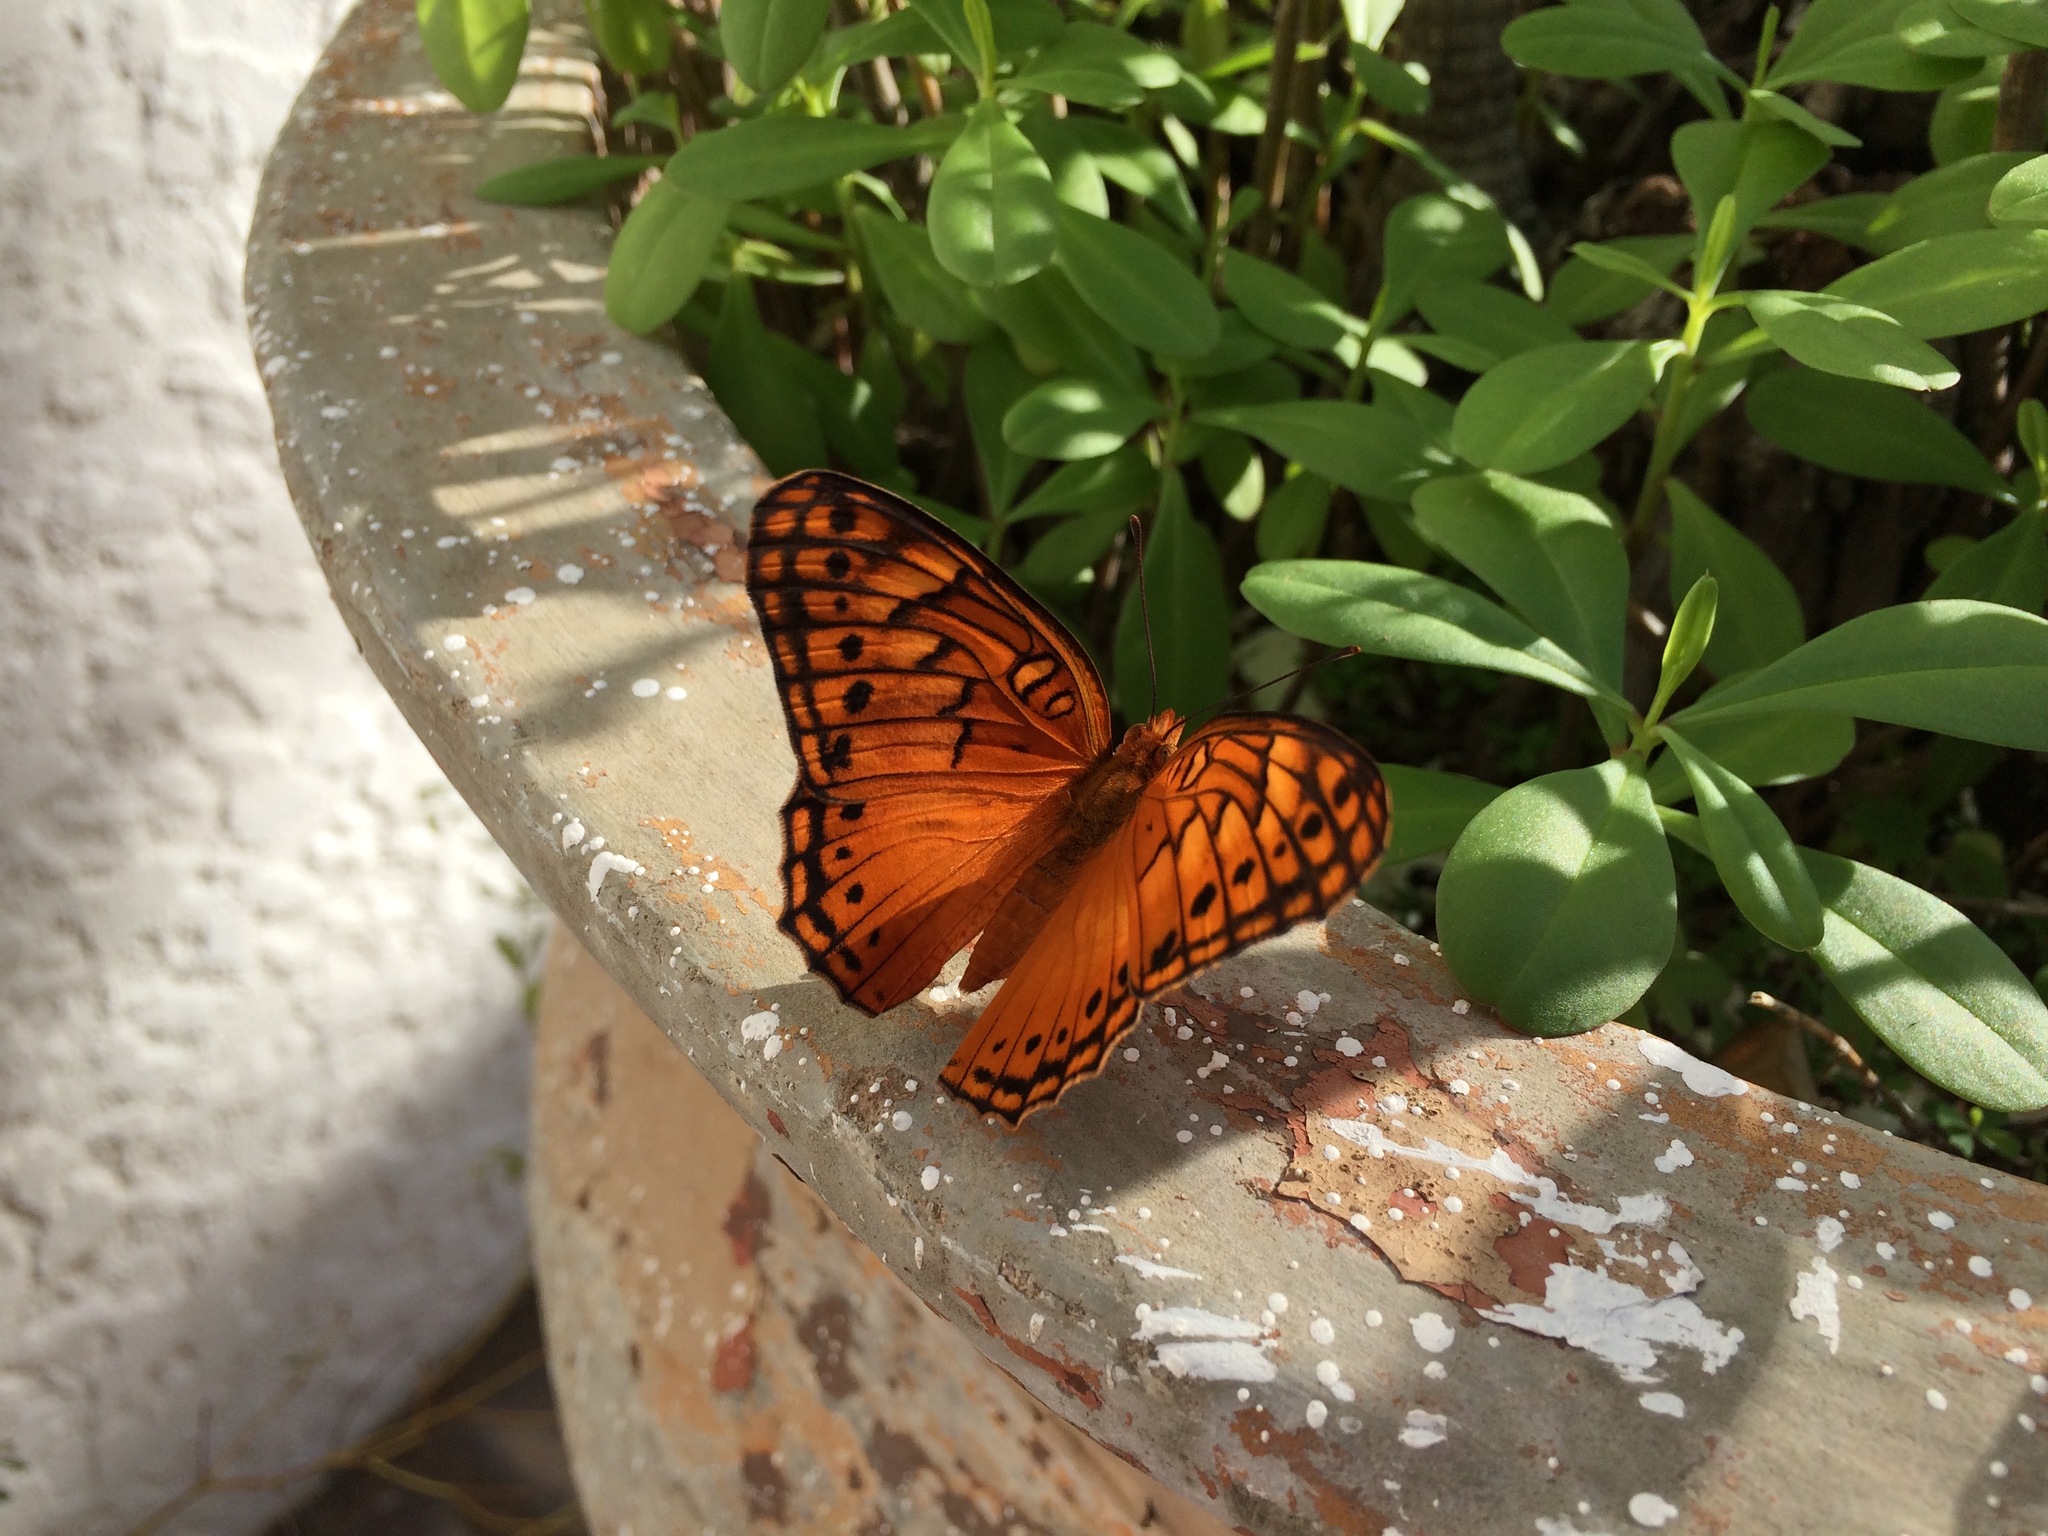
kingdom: Animalia
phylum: Arthropoda
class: Insecta
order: Lepidoptera
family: Nymphalidae
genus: Euptoieta
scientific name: Euptoieta hegesia
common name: Mexican fritillary
